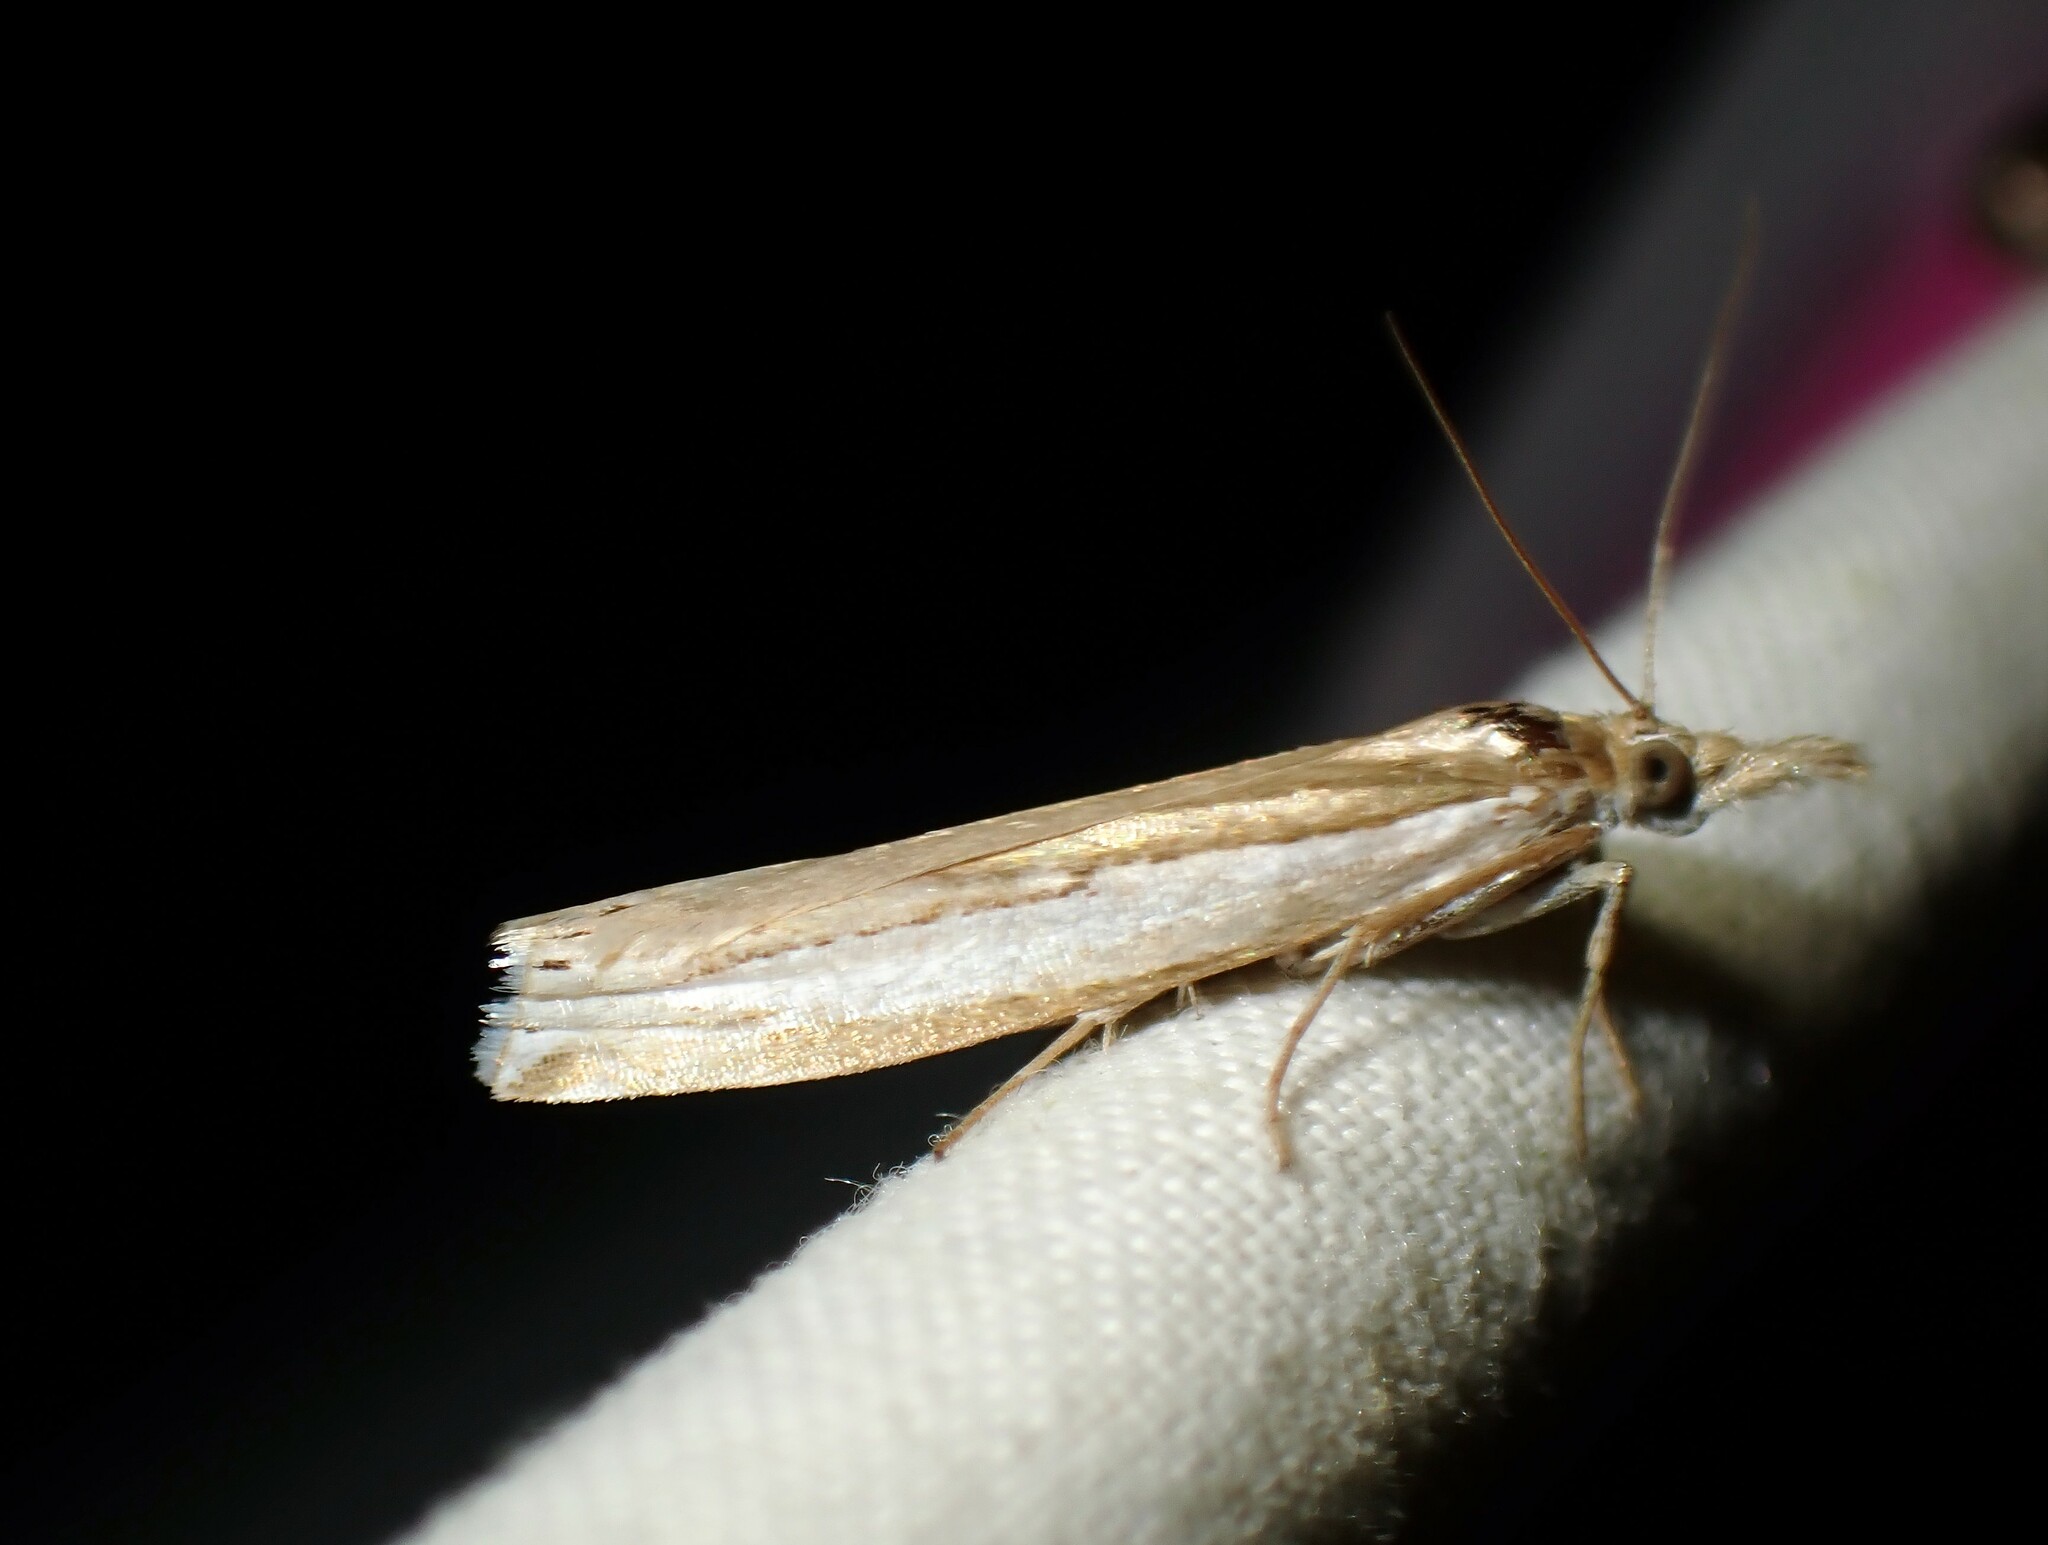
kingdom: Animalia
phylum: Arthropoda
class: Insecta
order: Lepidoptera
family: Crambidae
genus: Crambus
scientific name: Crambus leachellus
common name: Leach's grass-veneer
